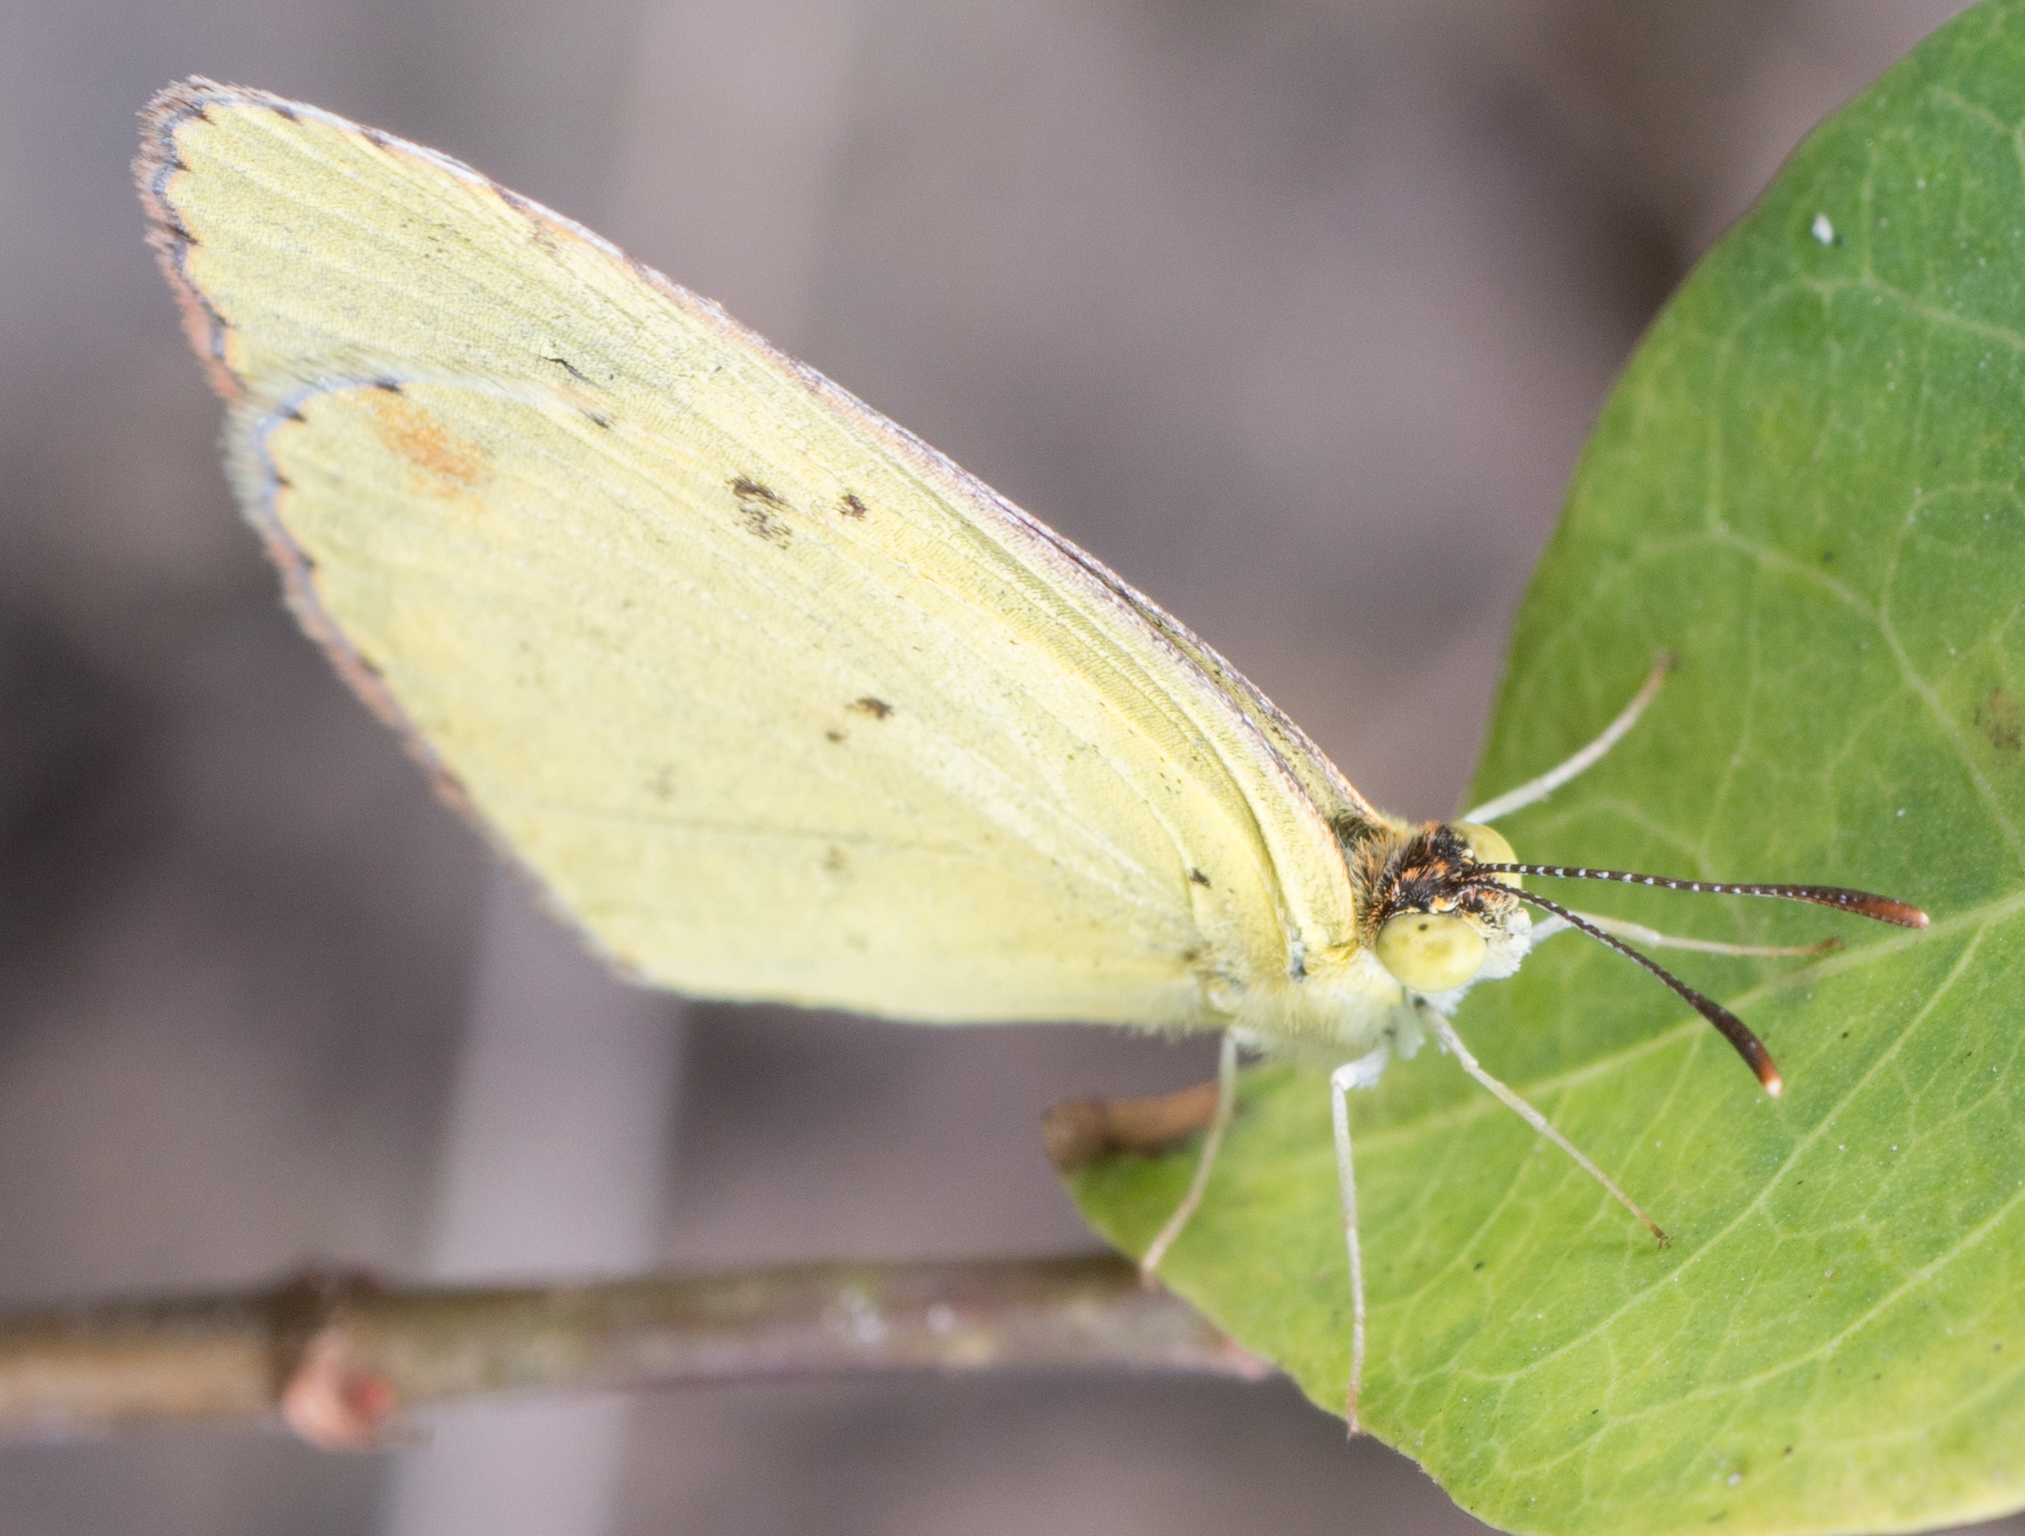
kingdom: Animalia
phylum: Arthropoda
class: Insecta
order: Lepidoptera
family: Pieridae
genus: Pyrisitia
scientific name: Pyrisitia lisa
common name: Little yellow
